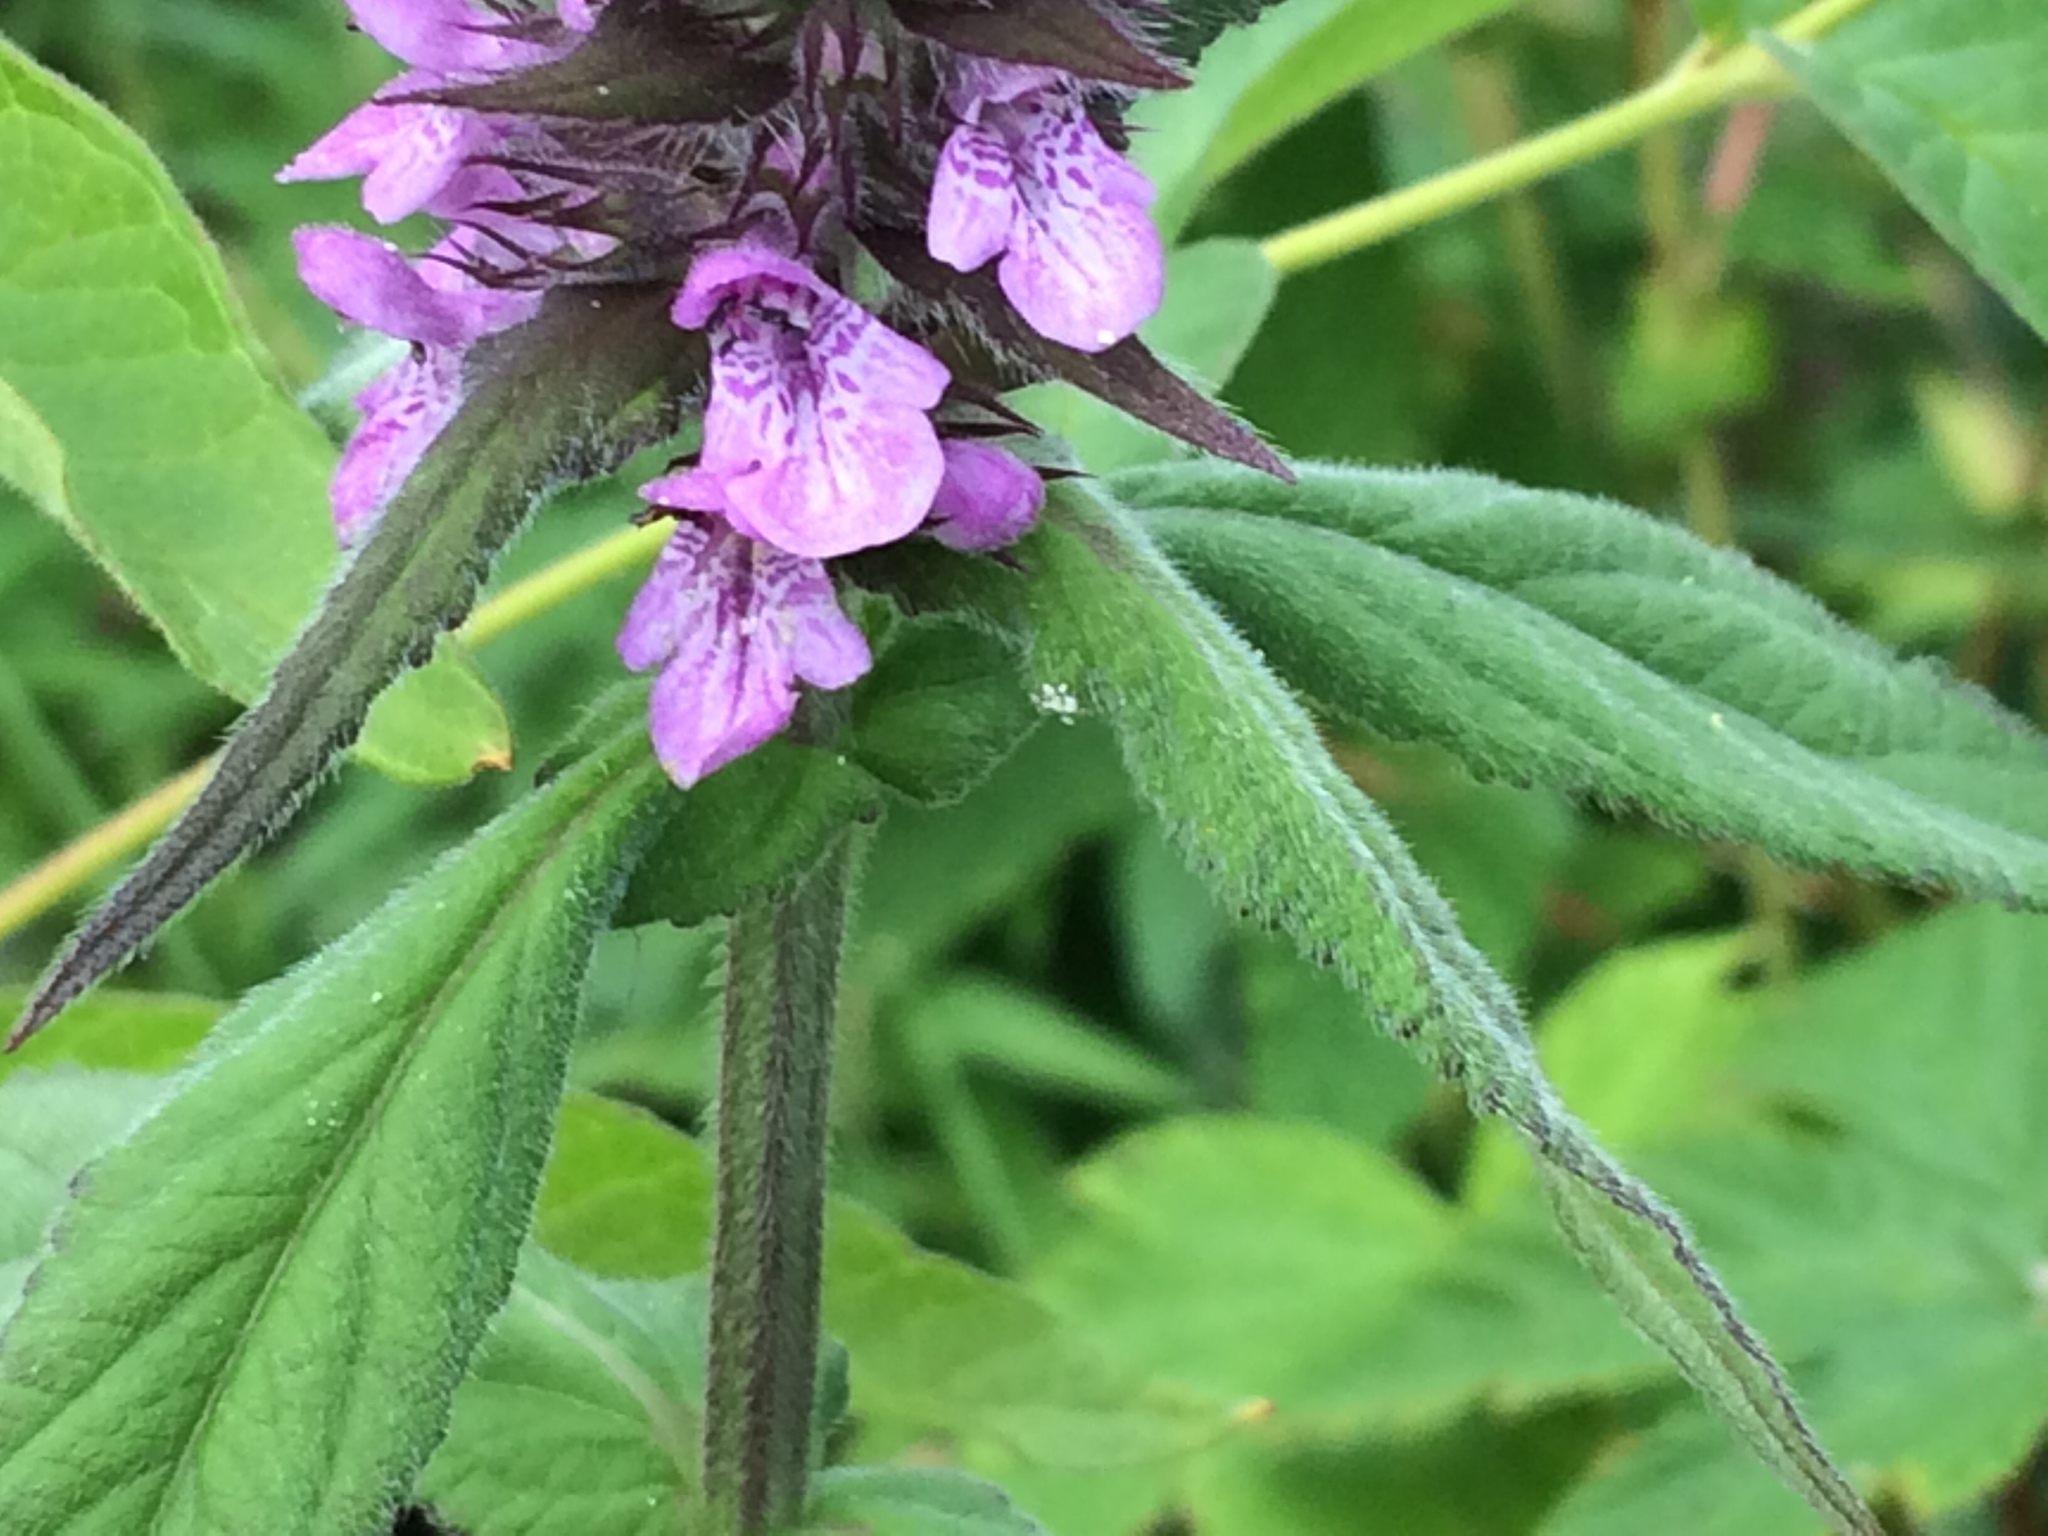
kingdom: Plantae
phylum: Tracheophyta
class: Magnoliopsida
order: Lamiales
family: Lamiaceae
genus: Stachys
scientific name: Stachys palustris
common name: Marsh woundwort
